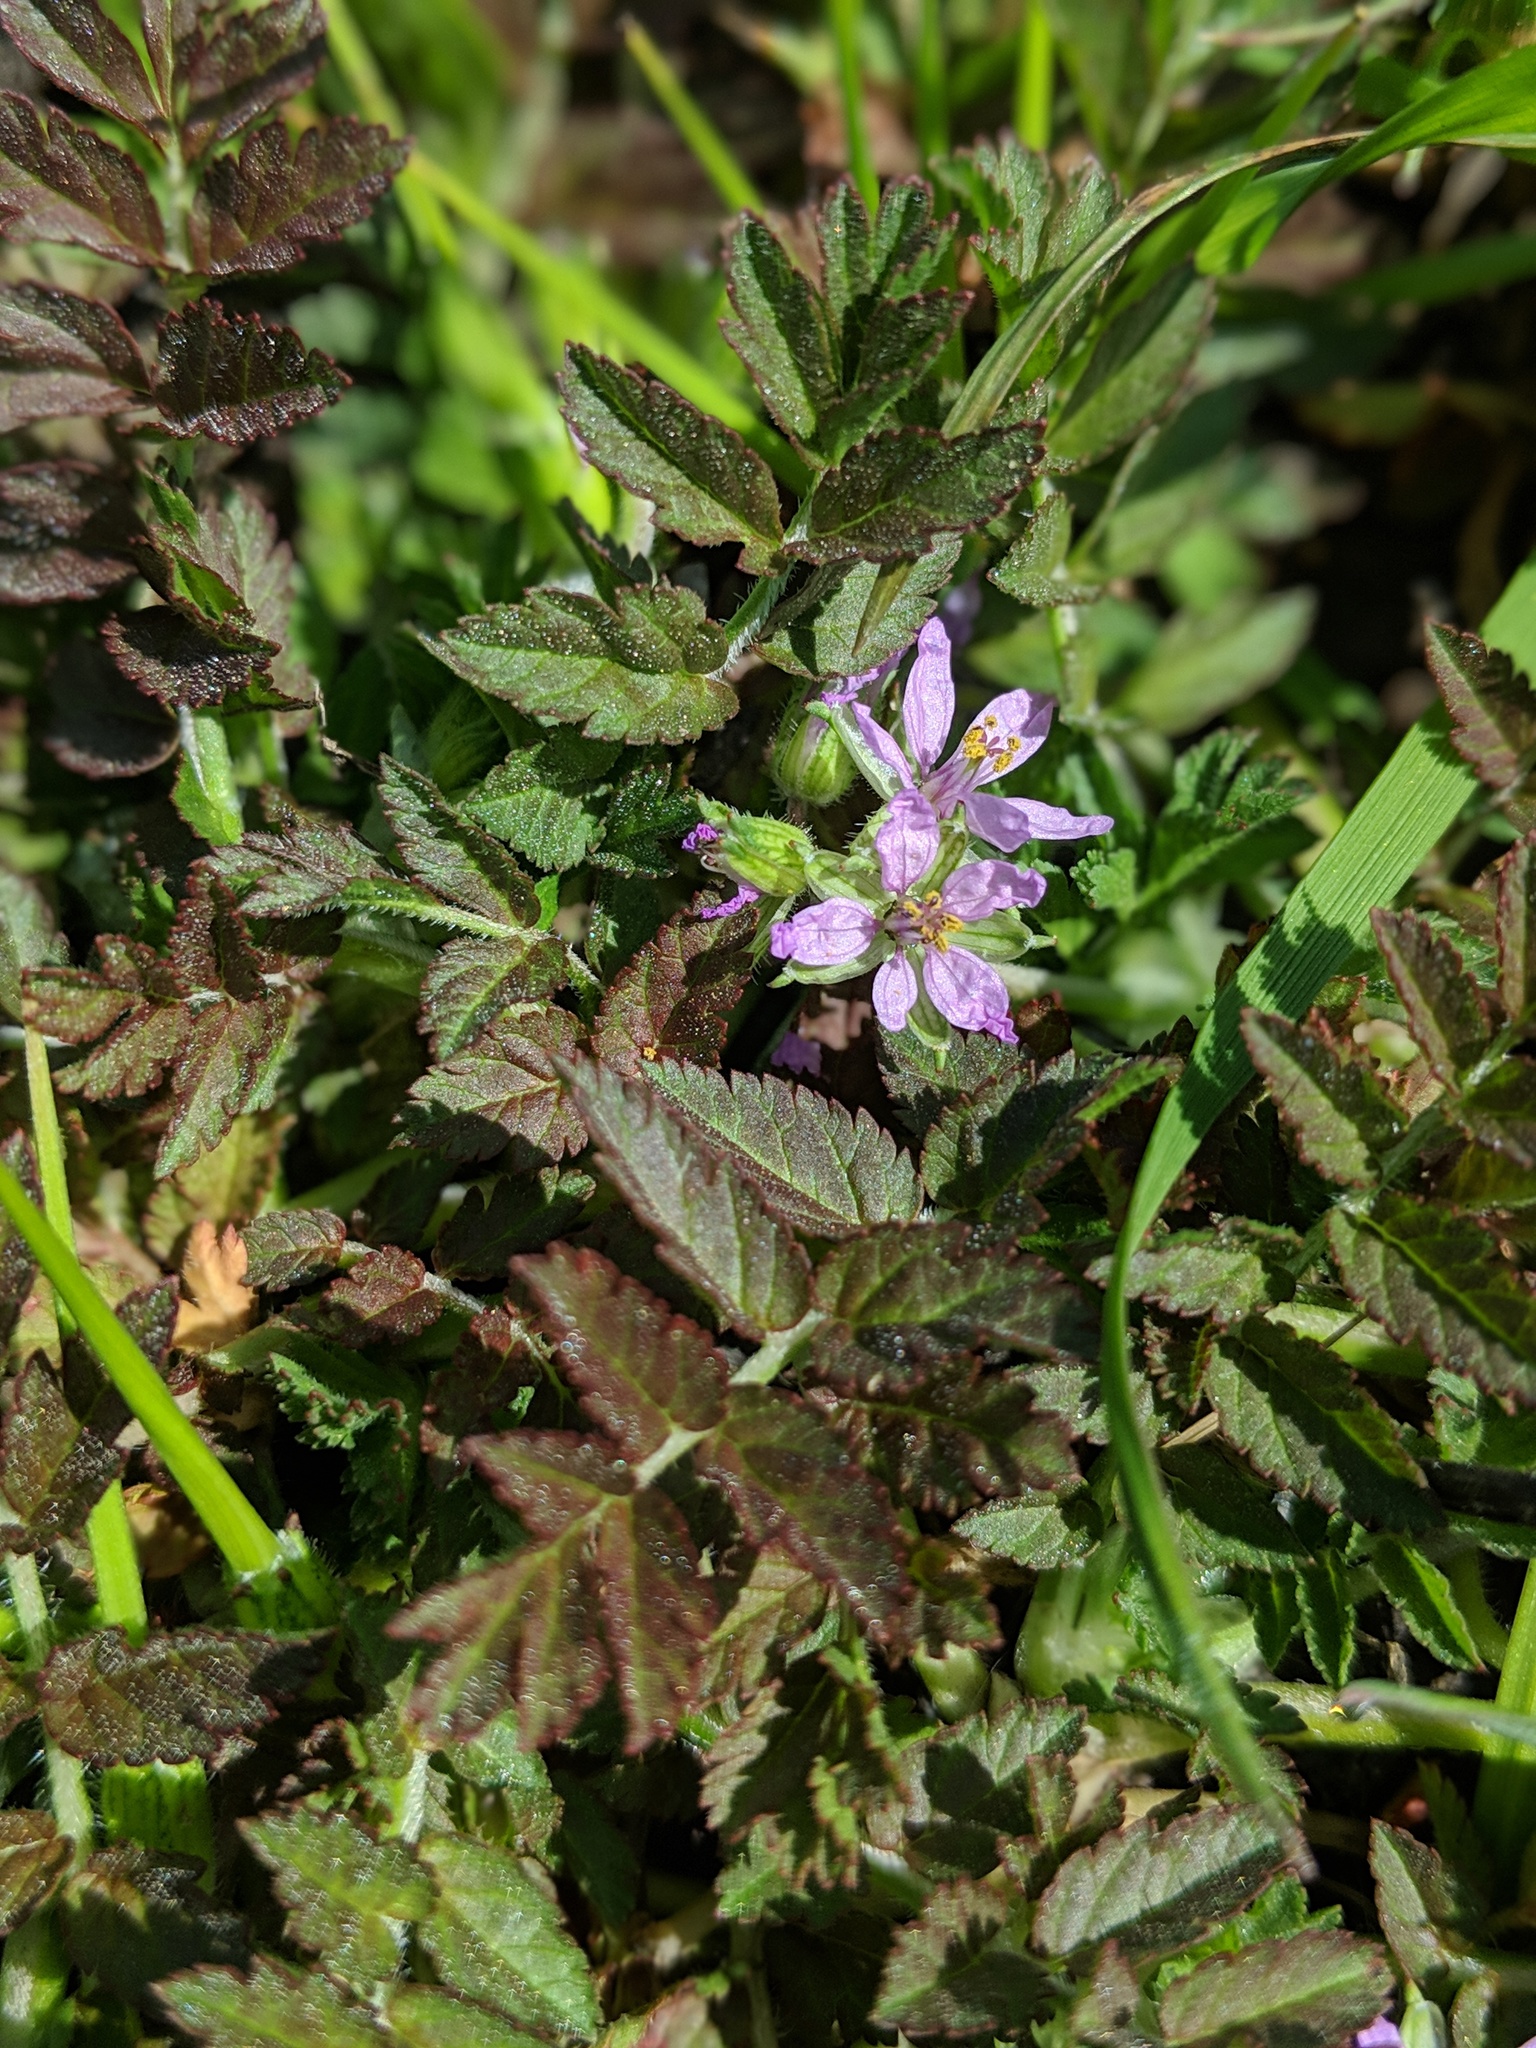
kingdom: Plantae
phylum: Tracheophyta
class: Magnoliopsida
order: Geraniales
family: Geraniaceae
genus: Erodium
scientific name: Erodium moschatum
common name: Musk stork's-bill
